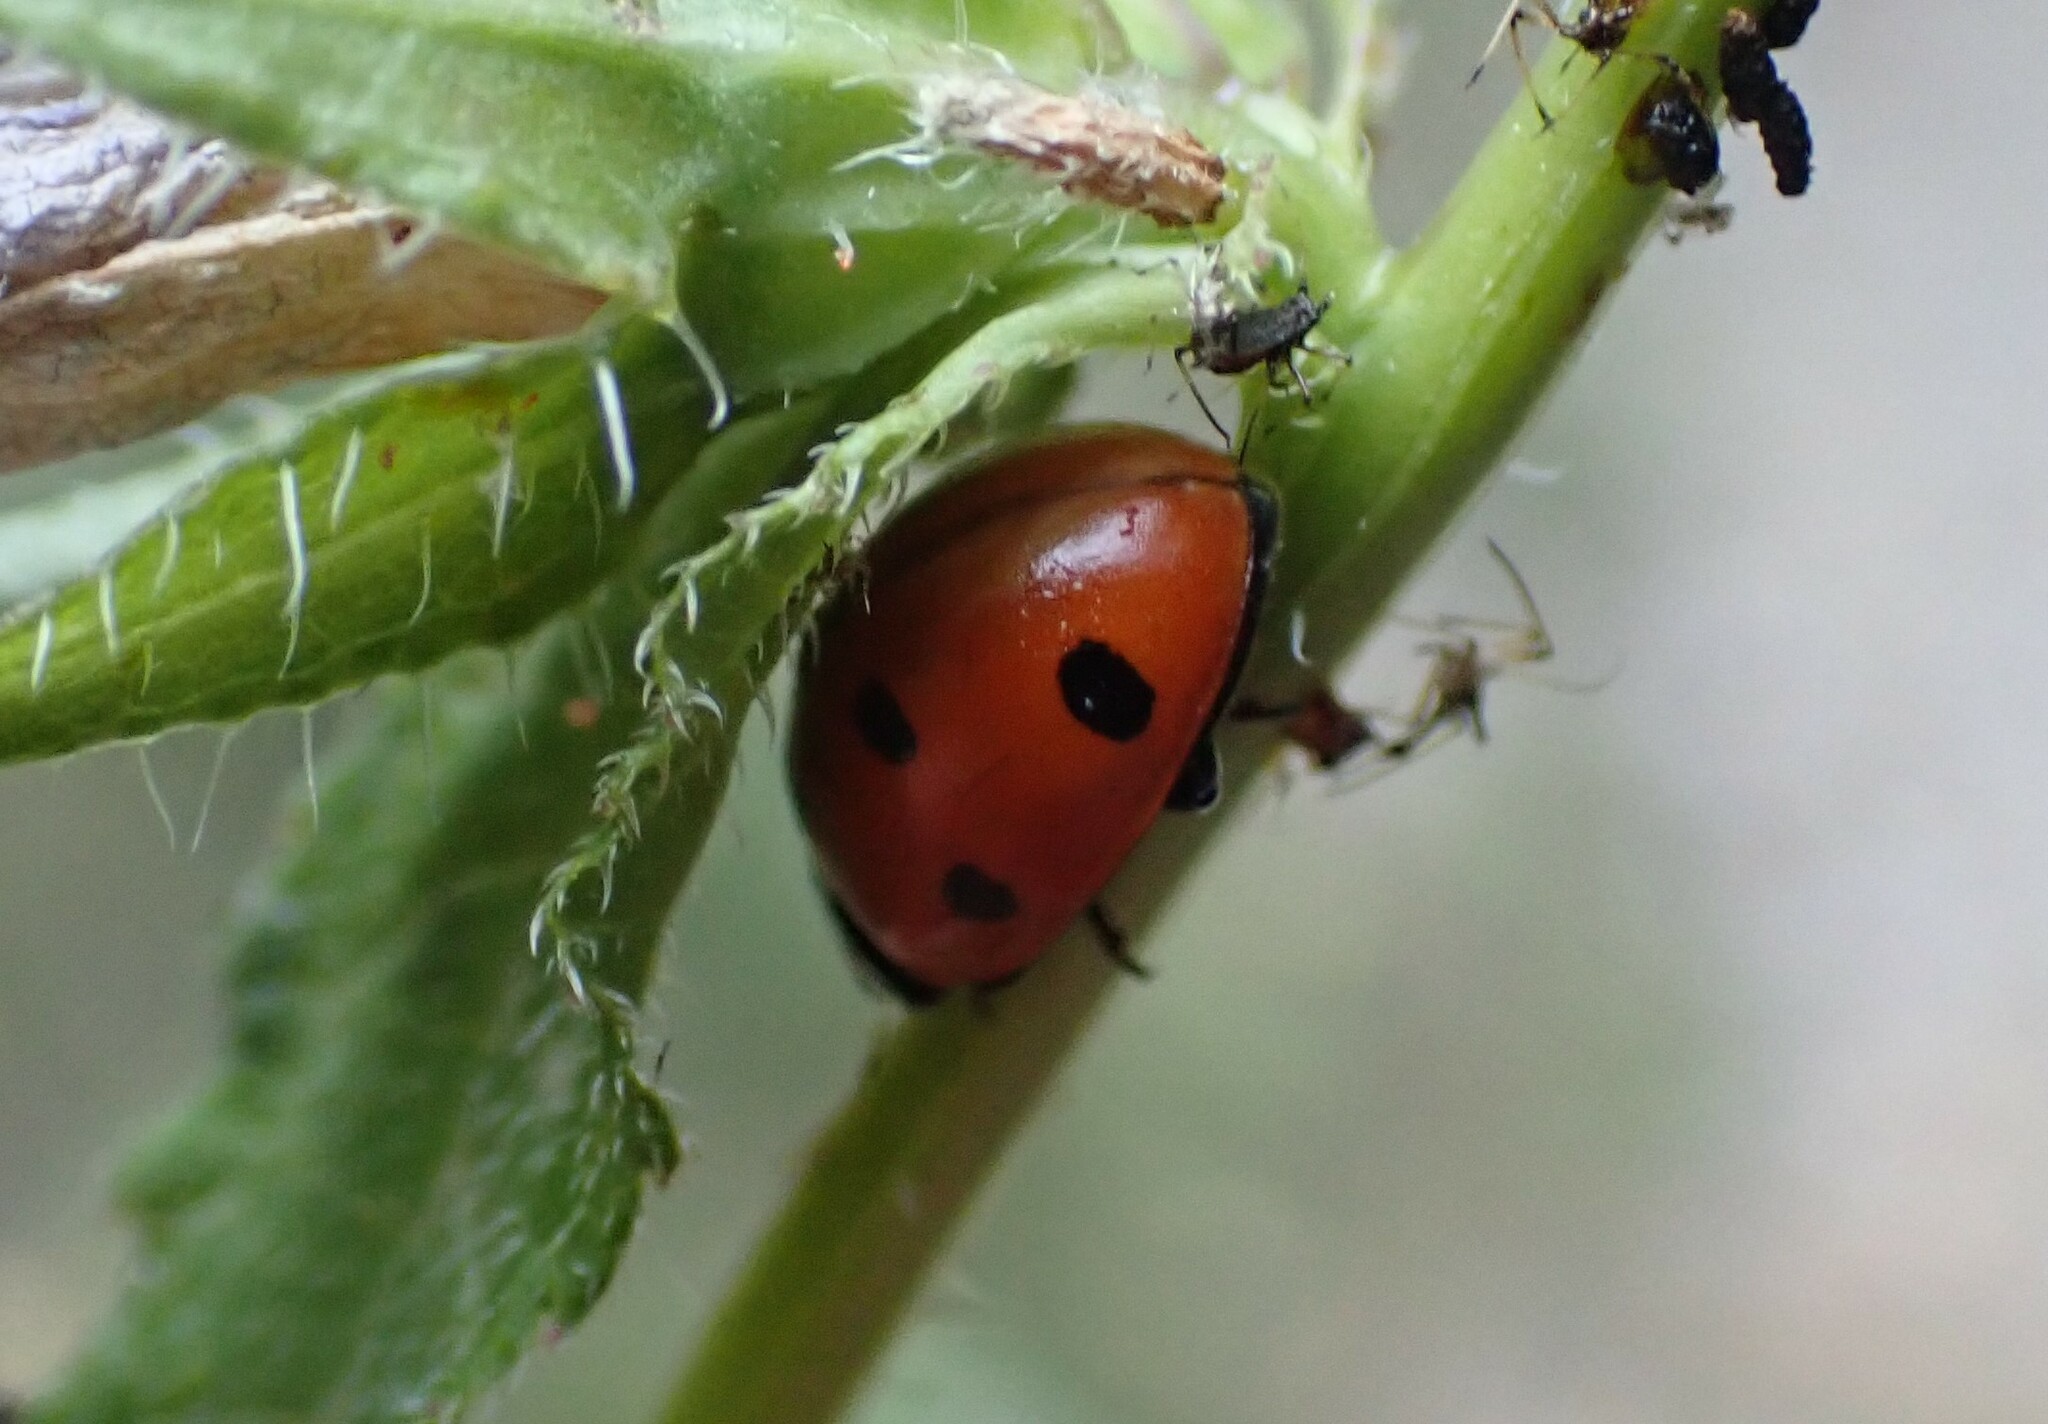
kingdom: Animalia
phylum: Arthropoda
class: Insecta
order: Coleoptera
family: Coccinellidae
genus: Coccinella
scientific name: Coccinella septempunctata
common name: Sevenspotted lady beetle
